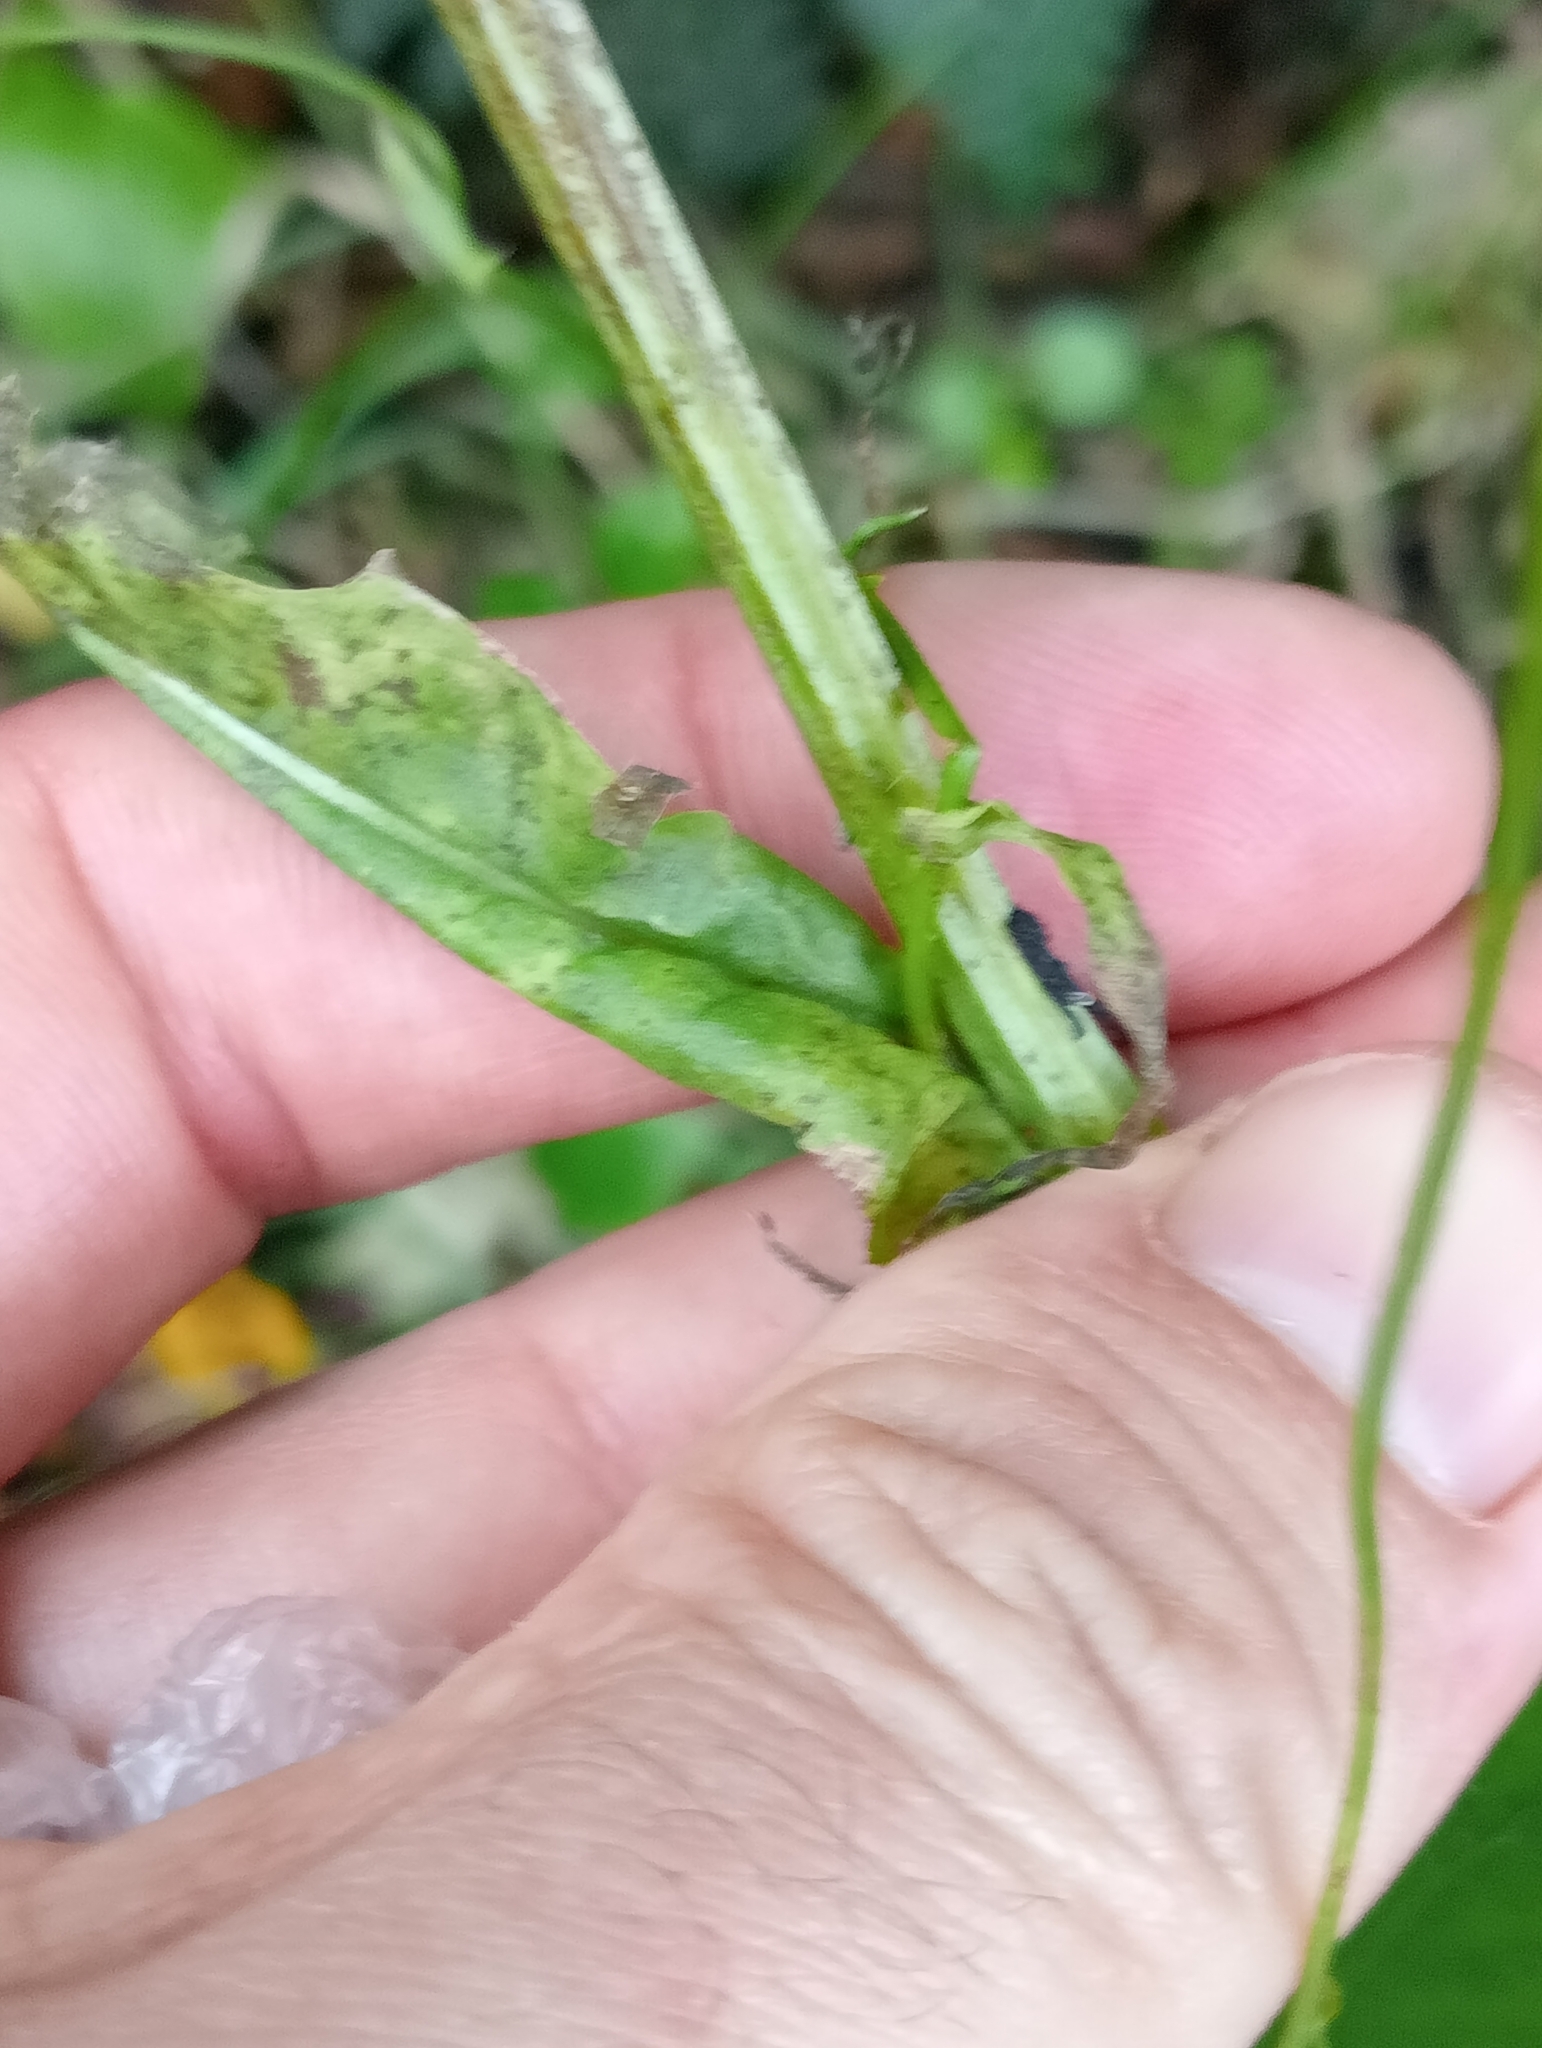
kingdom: Plantae
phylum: Tracheophyta
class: Magnoliopsida
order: Asterales
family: Asteraceae
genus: Crepis
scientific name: Crepis capillaris
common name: Smooth hawksbeard
